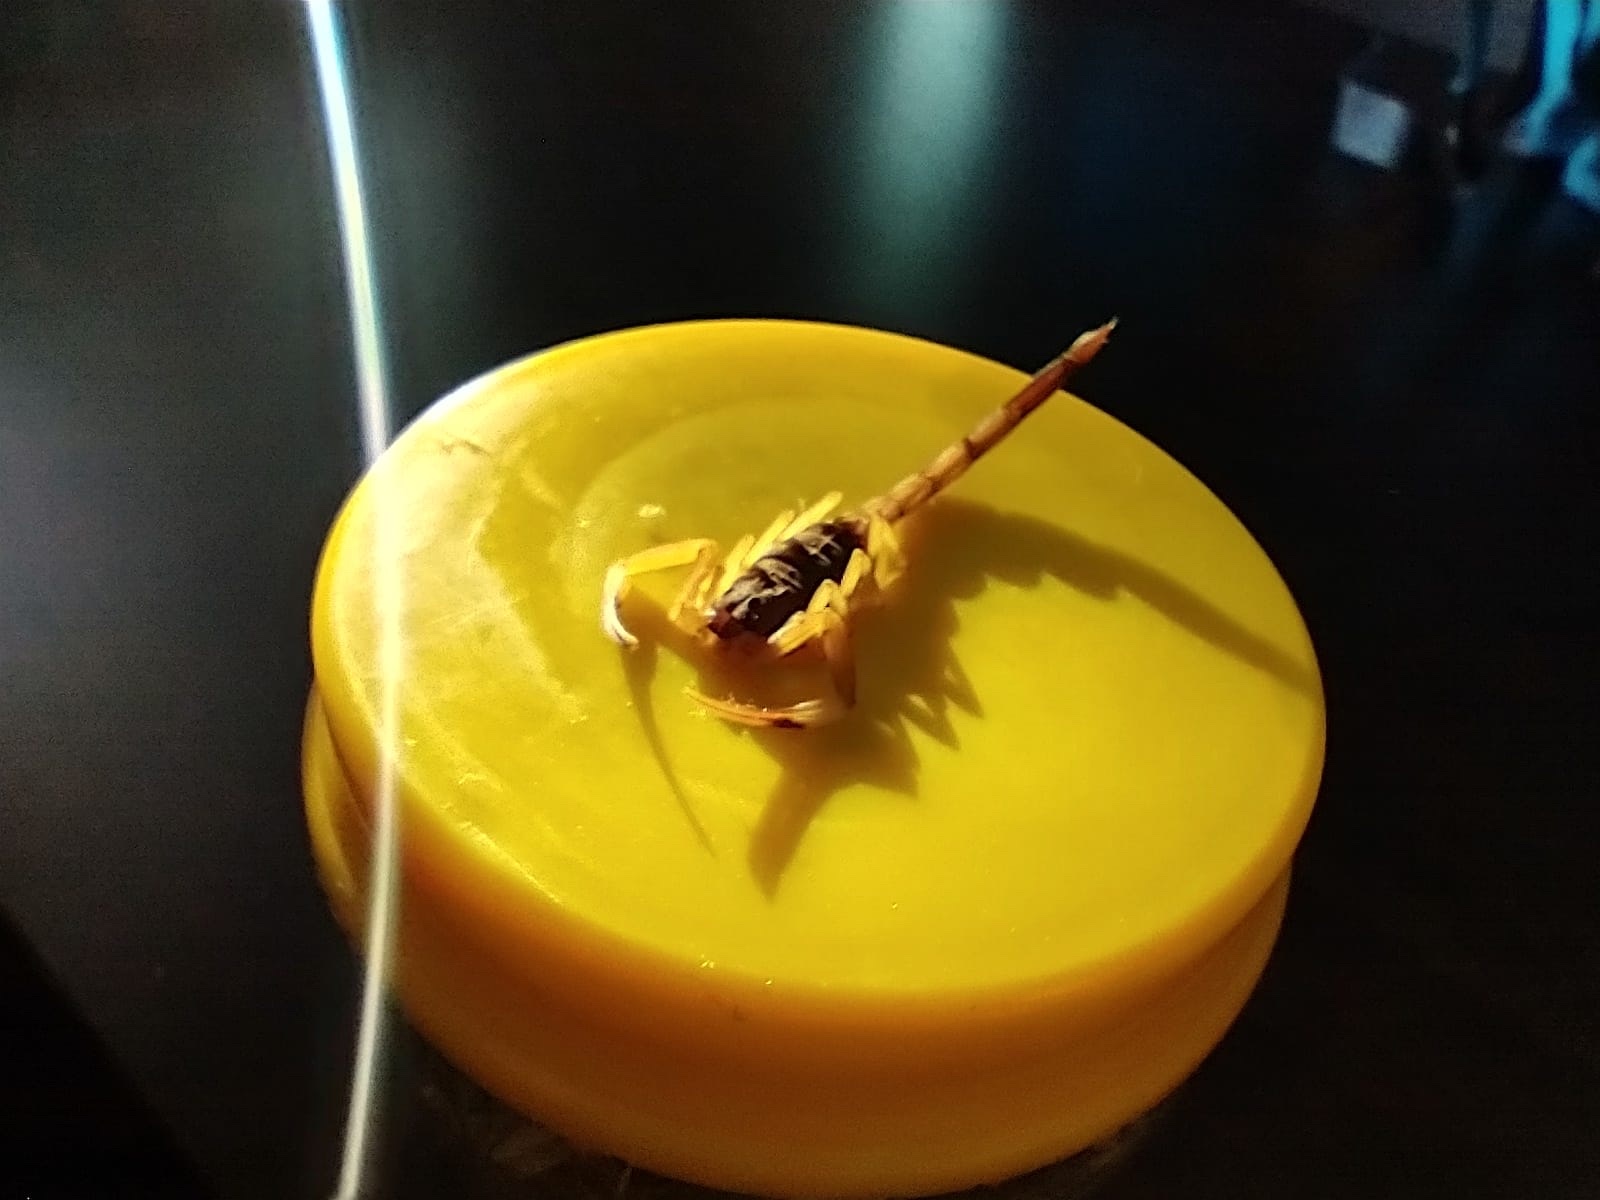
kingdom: Animalia
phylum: Arthropoda
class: Arachnida
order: Scorpiones
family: Buthidae
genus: Tityus
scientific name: Tityus confluens
